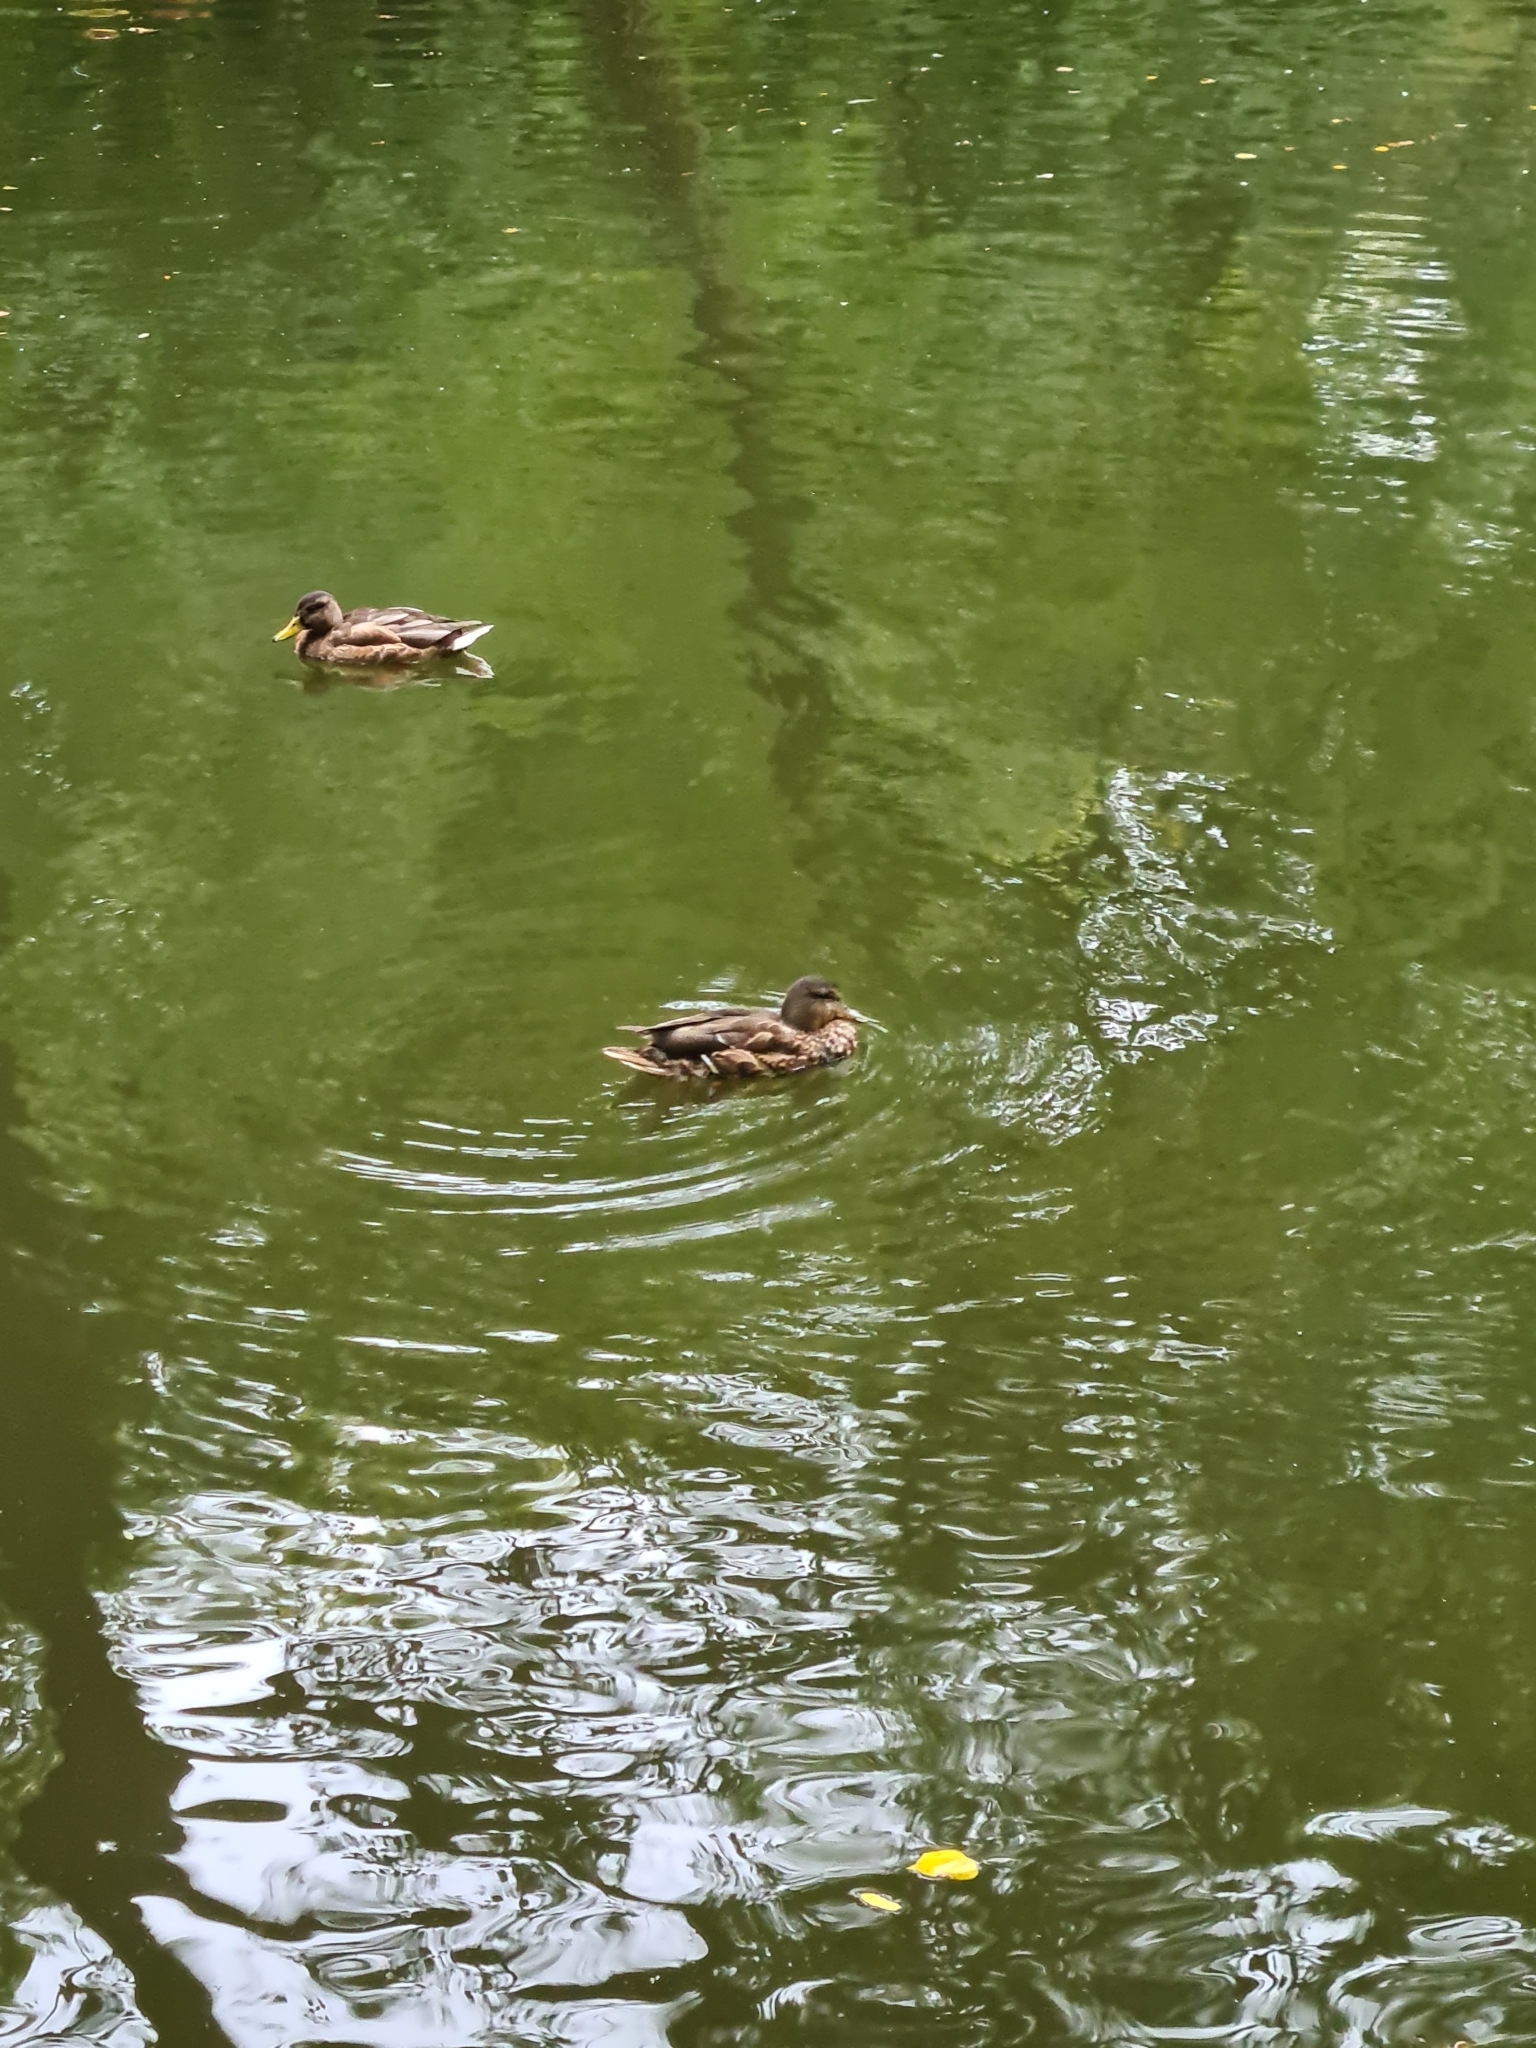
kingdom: Animalia
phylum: Chordata
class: Aves
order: Anseriformes
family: Anatidae
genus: Anas
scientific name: Anas platyrhynchos
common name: Mallard
